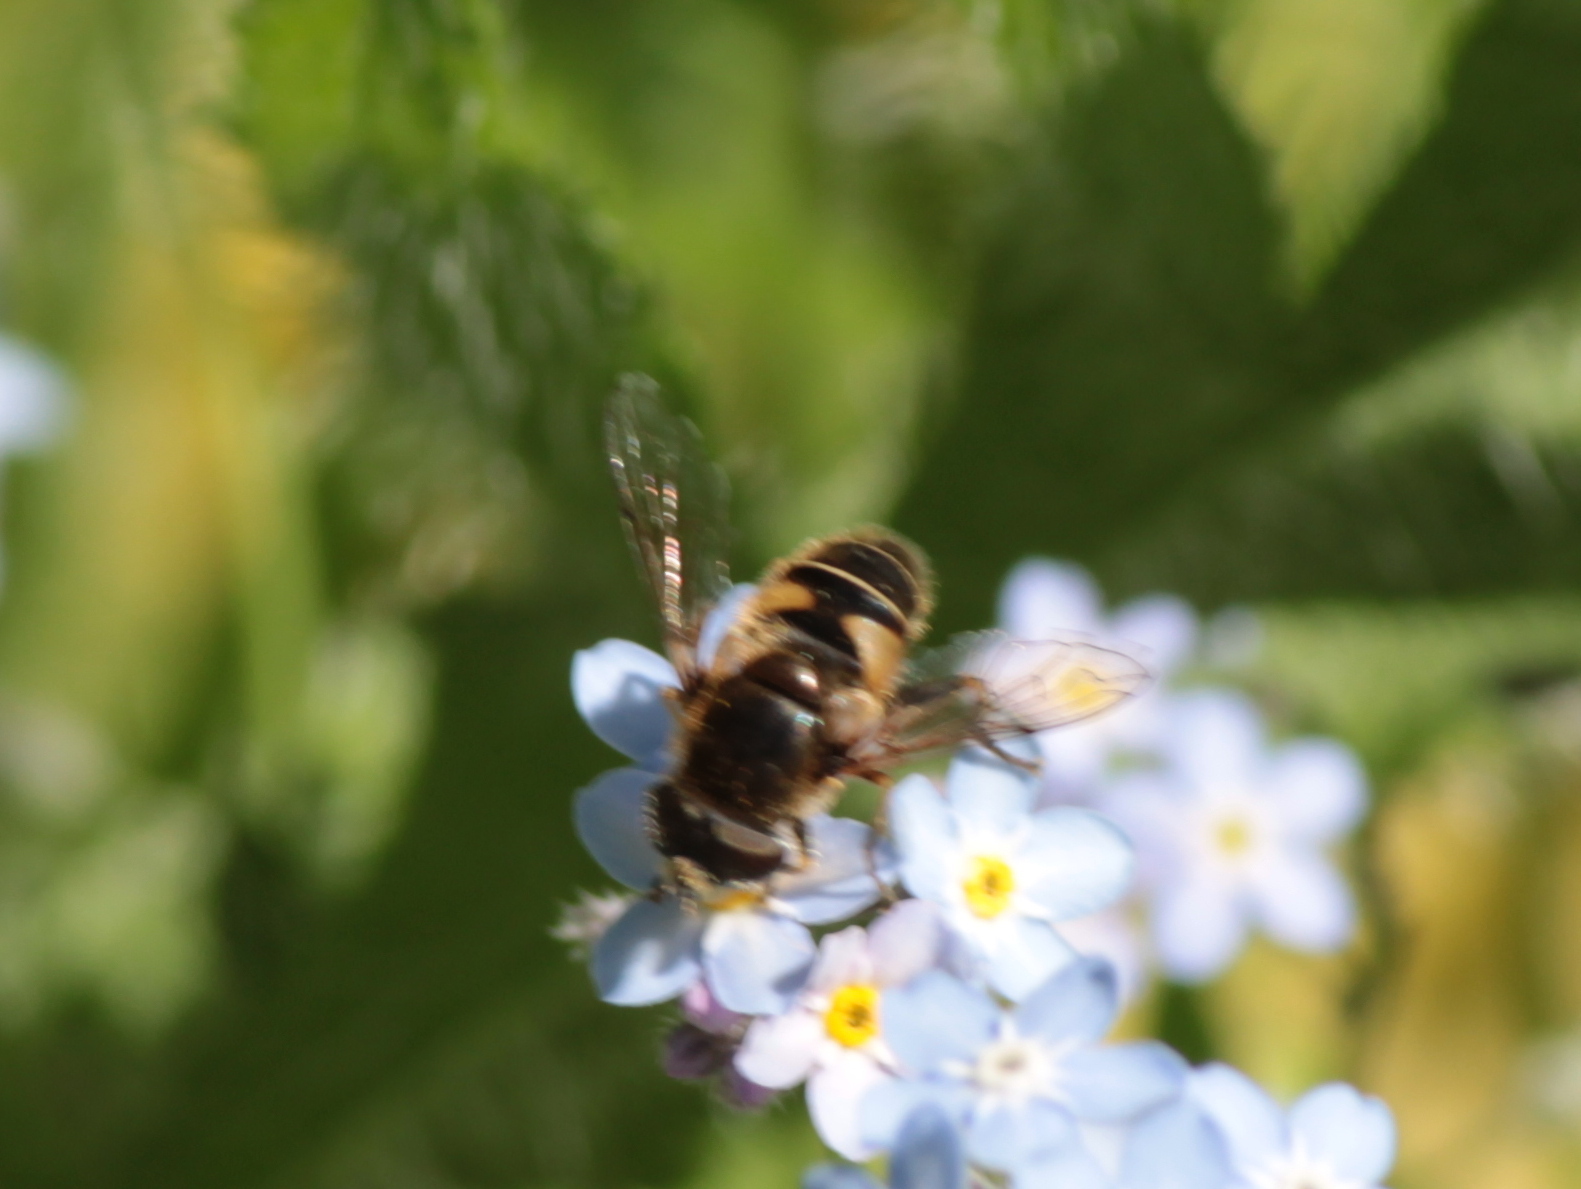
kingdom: Animalia
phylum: Arthropoda
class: Insecta
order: Diptera
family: Syrphidae
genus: Eristalis
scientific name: Eristalis nemorum
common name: Orange-spined drone fly
